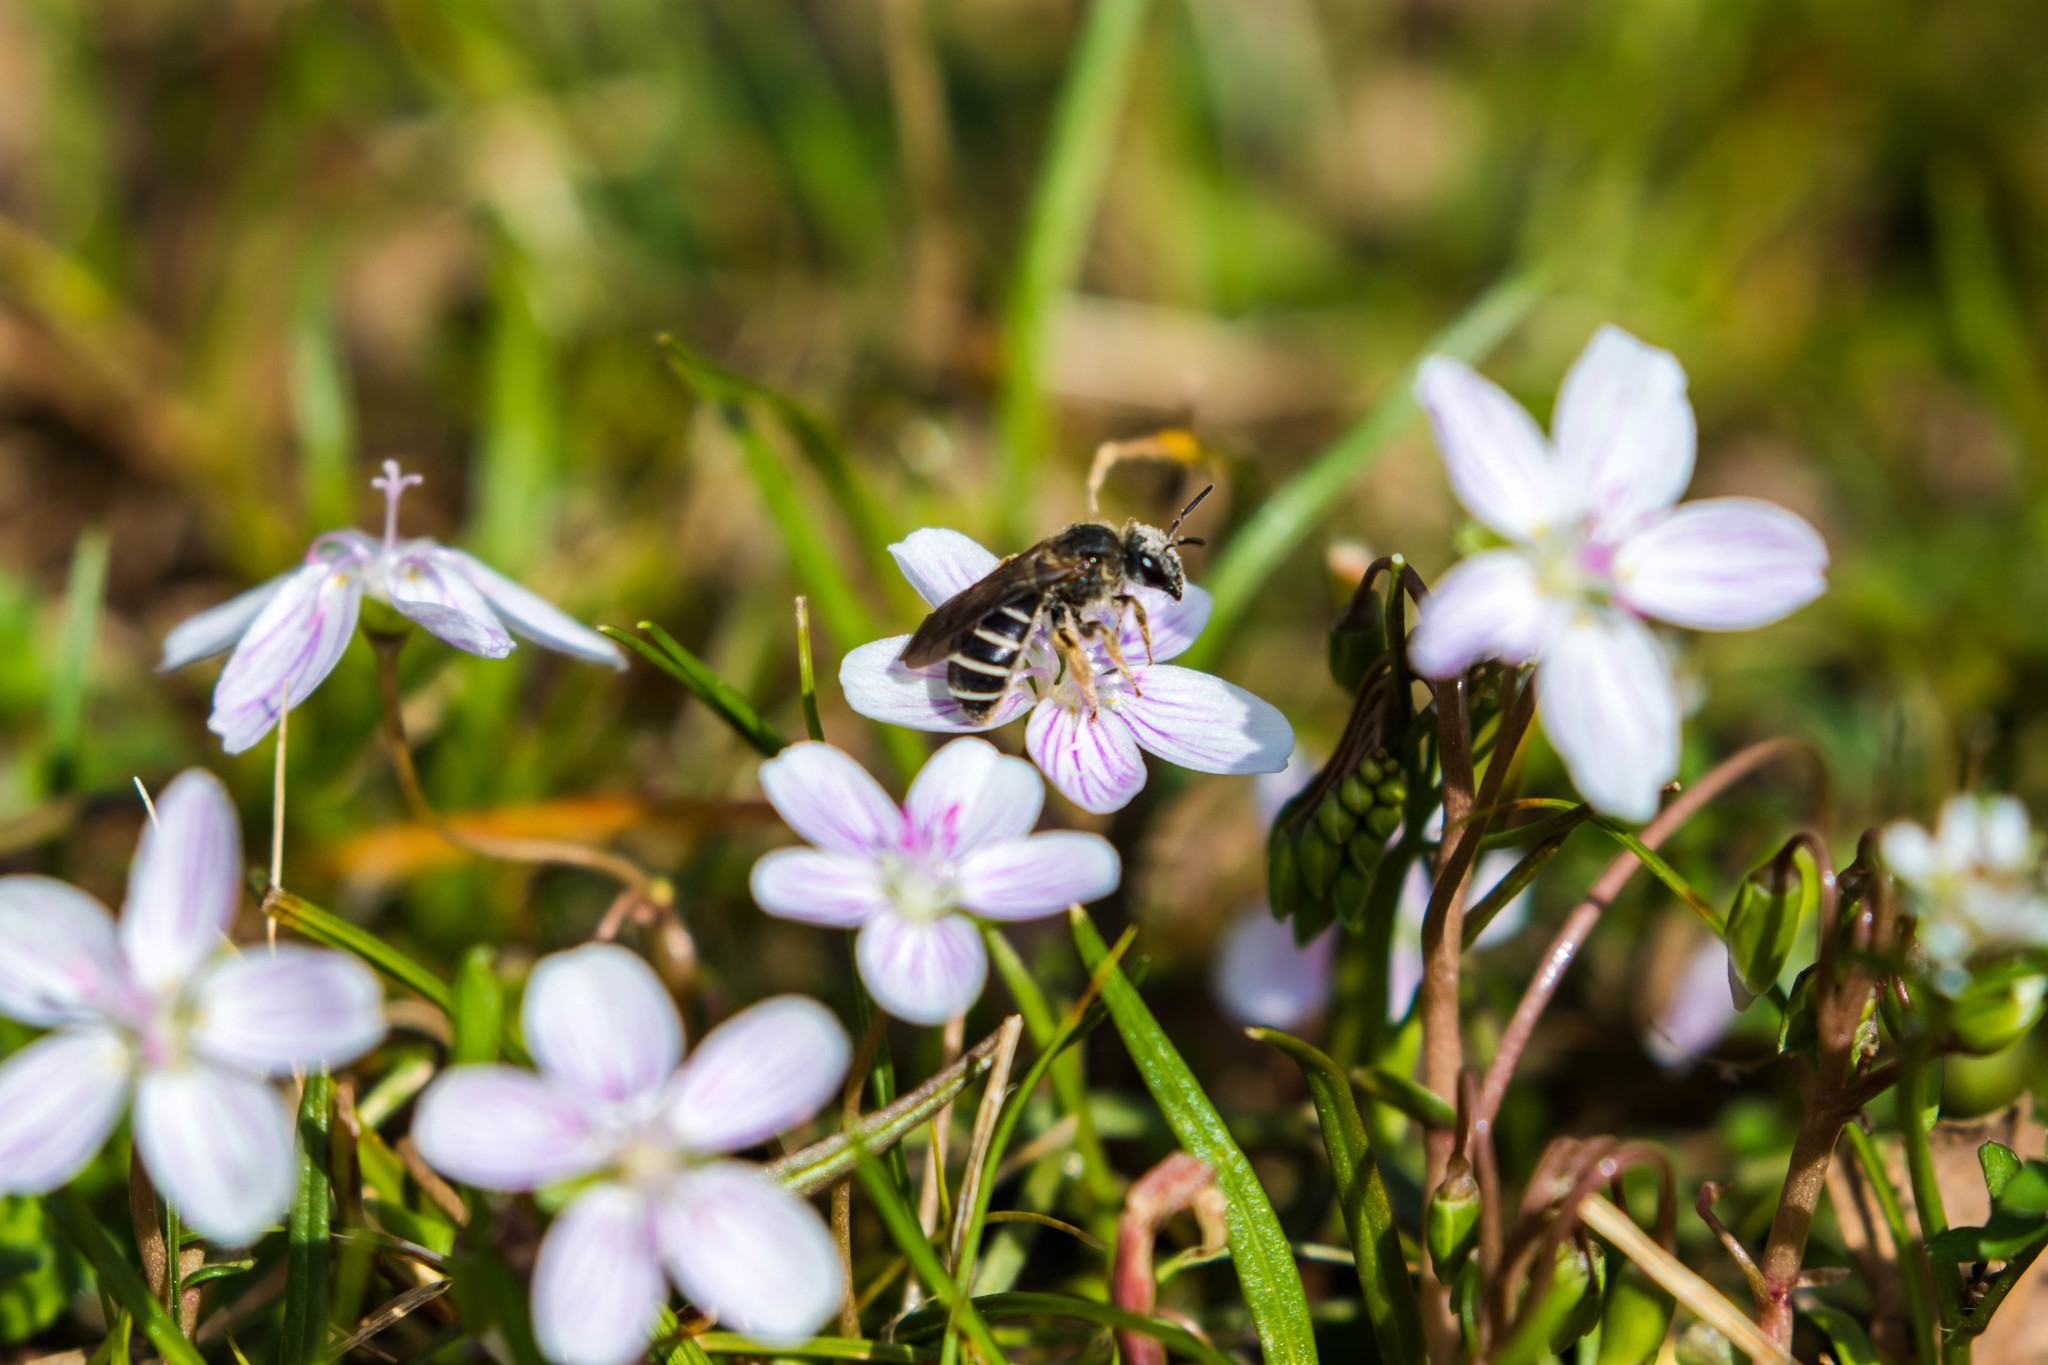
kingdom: Animalia
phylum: Arthropoda
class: Insecta
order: Hymenoptera
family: Halictidae
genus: Halictus
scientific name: Halictus rubicundus
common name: Orange-legged furrow bee
